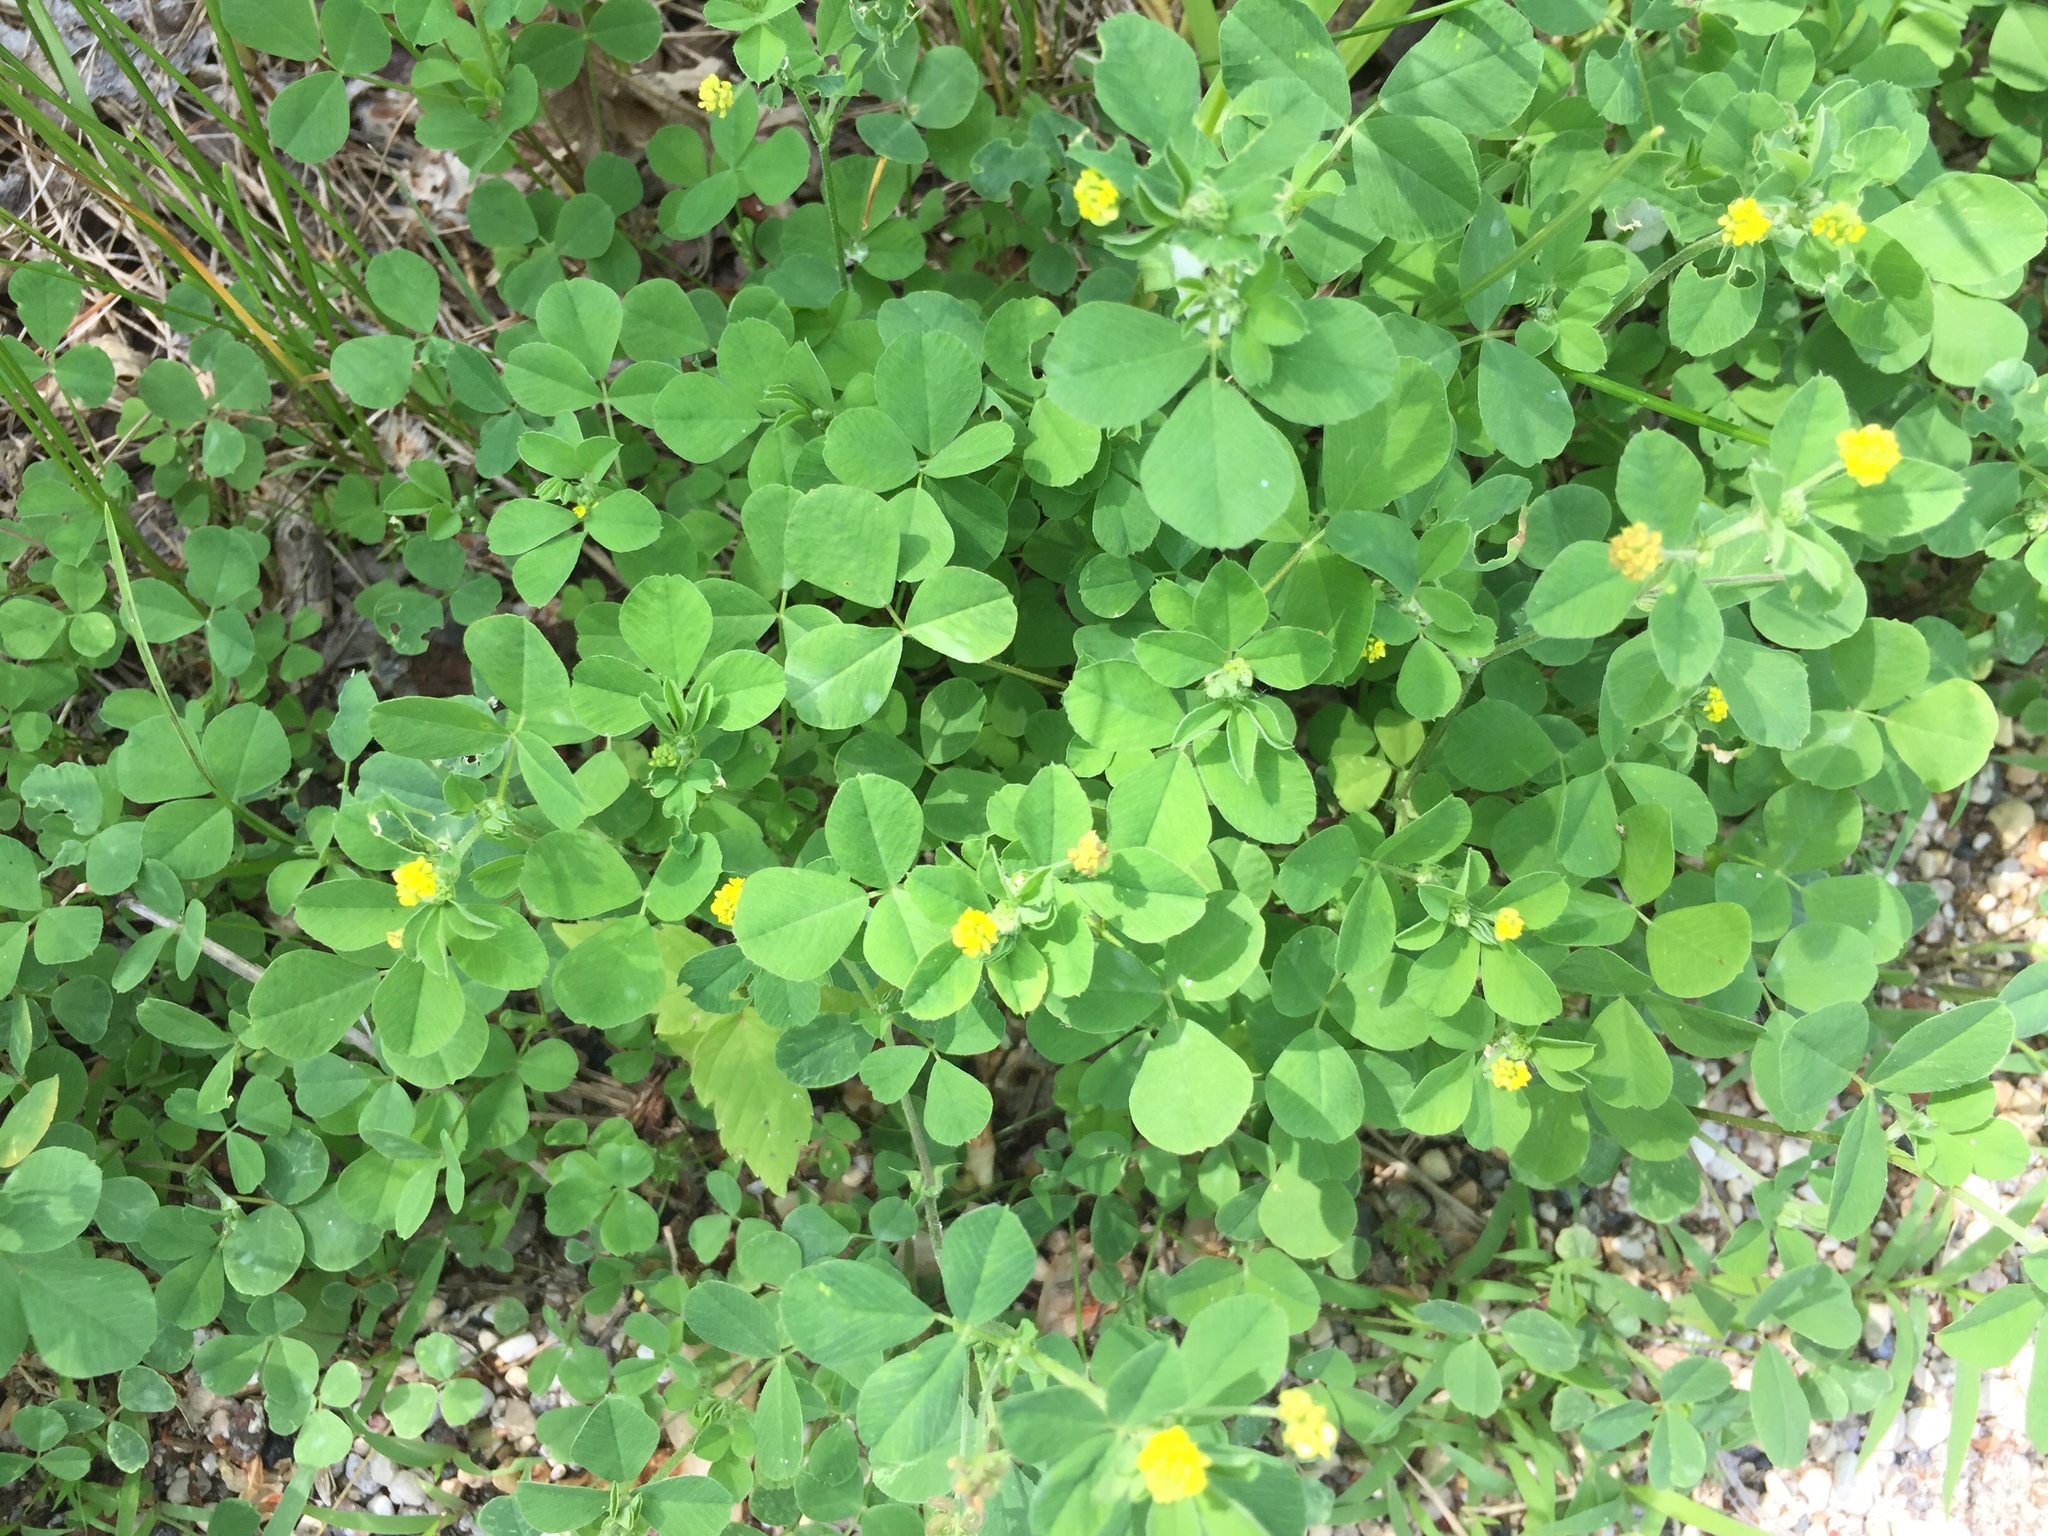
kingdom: Plantae
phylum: Tracheophyta
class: Magnoliopsida
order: Fabales
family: Fabaceae
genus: Medicago
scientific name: Medicago lupulina
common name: Black medick
